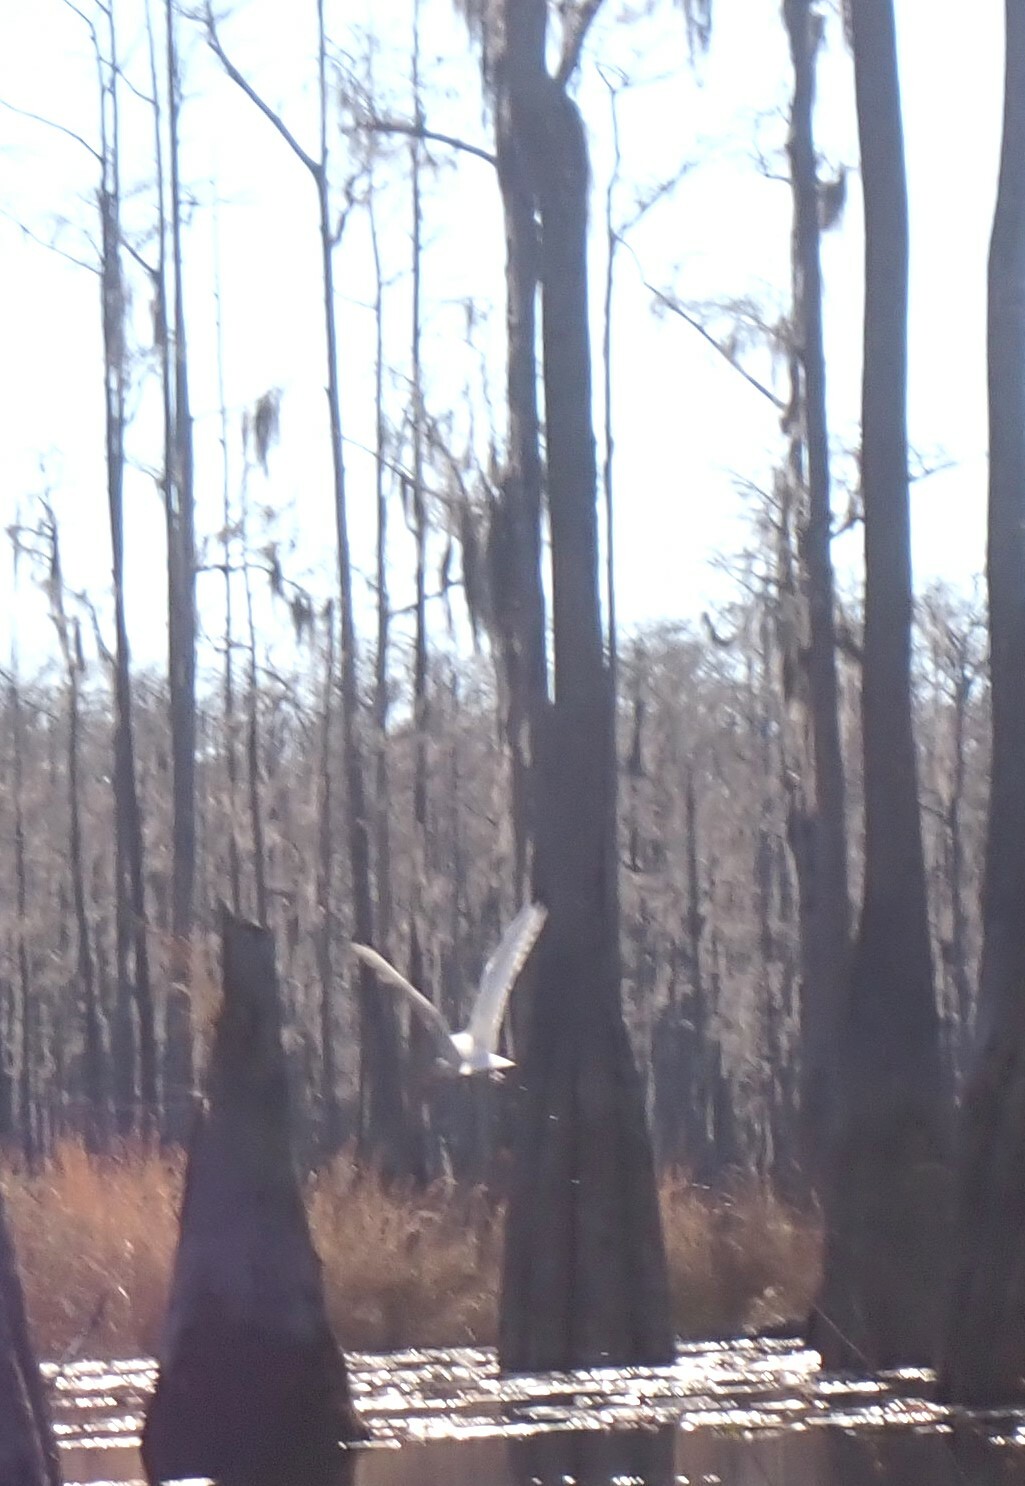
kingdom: Animalia
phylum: Chordata
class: Aves
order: Pelecaniformes
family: Threskiornithidae
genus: Eudocimus
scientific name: Eudocimus albus
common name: White ibis
